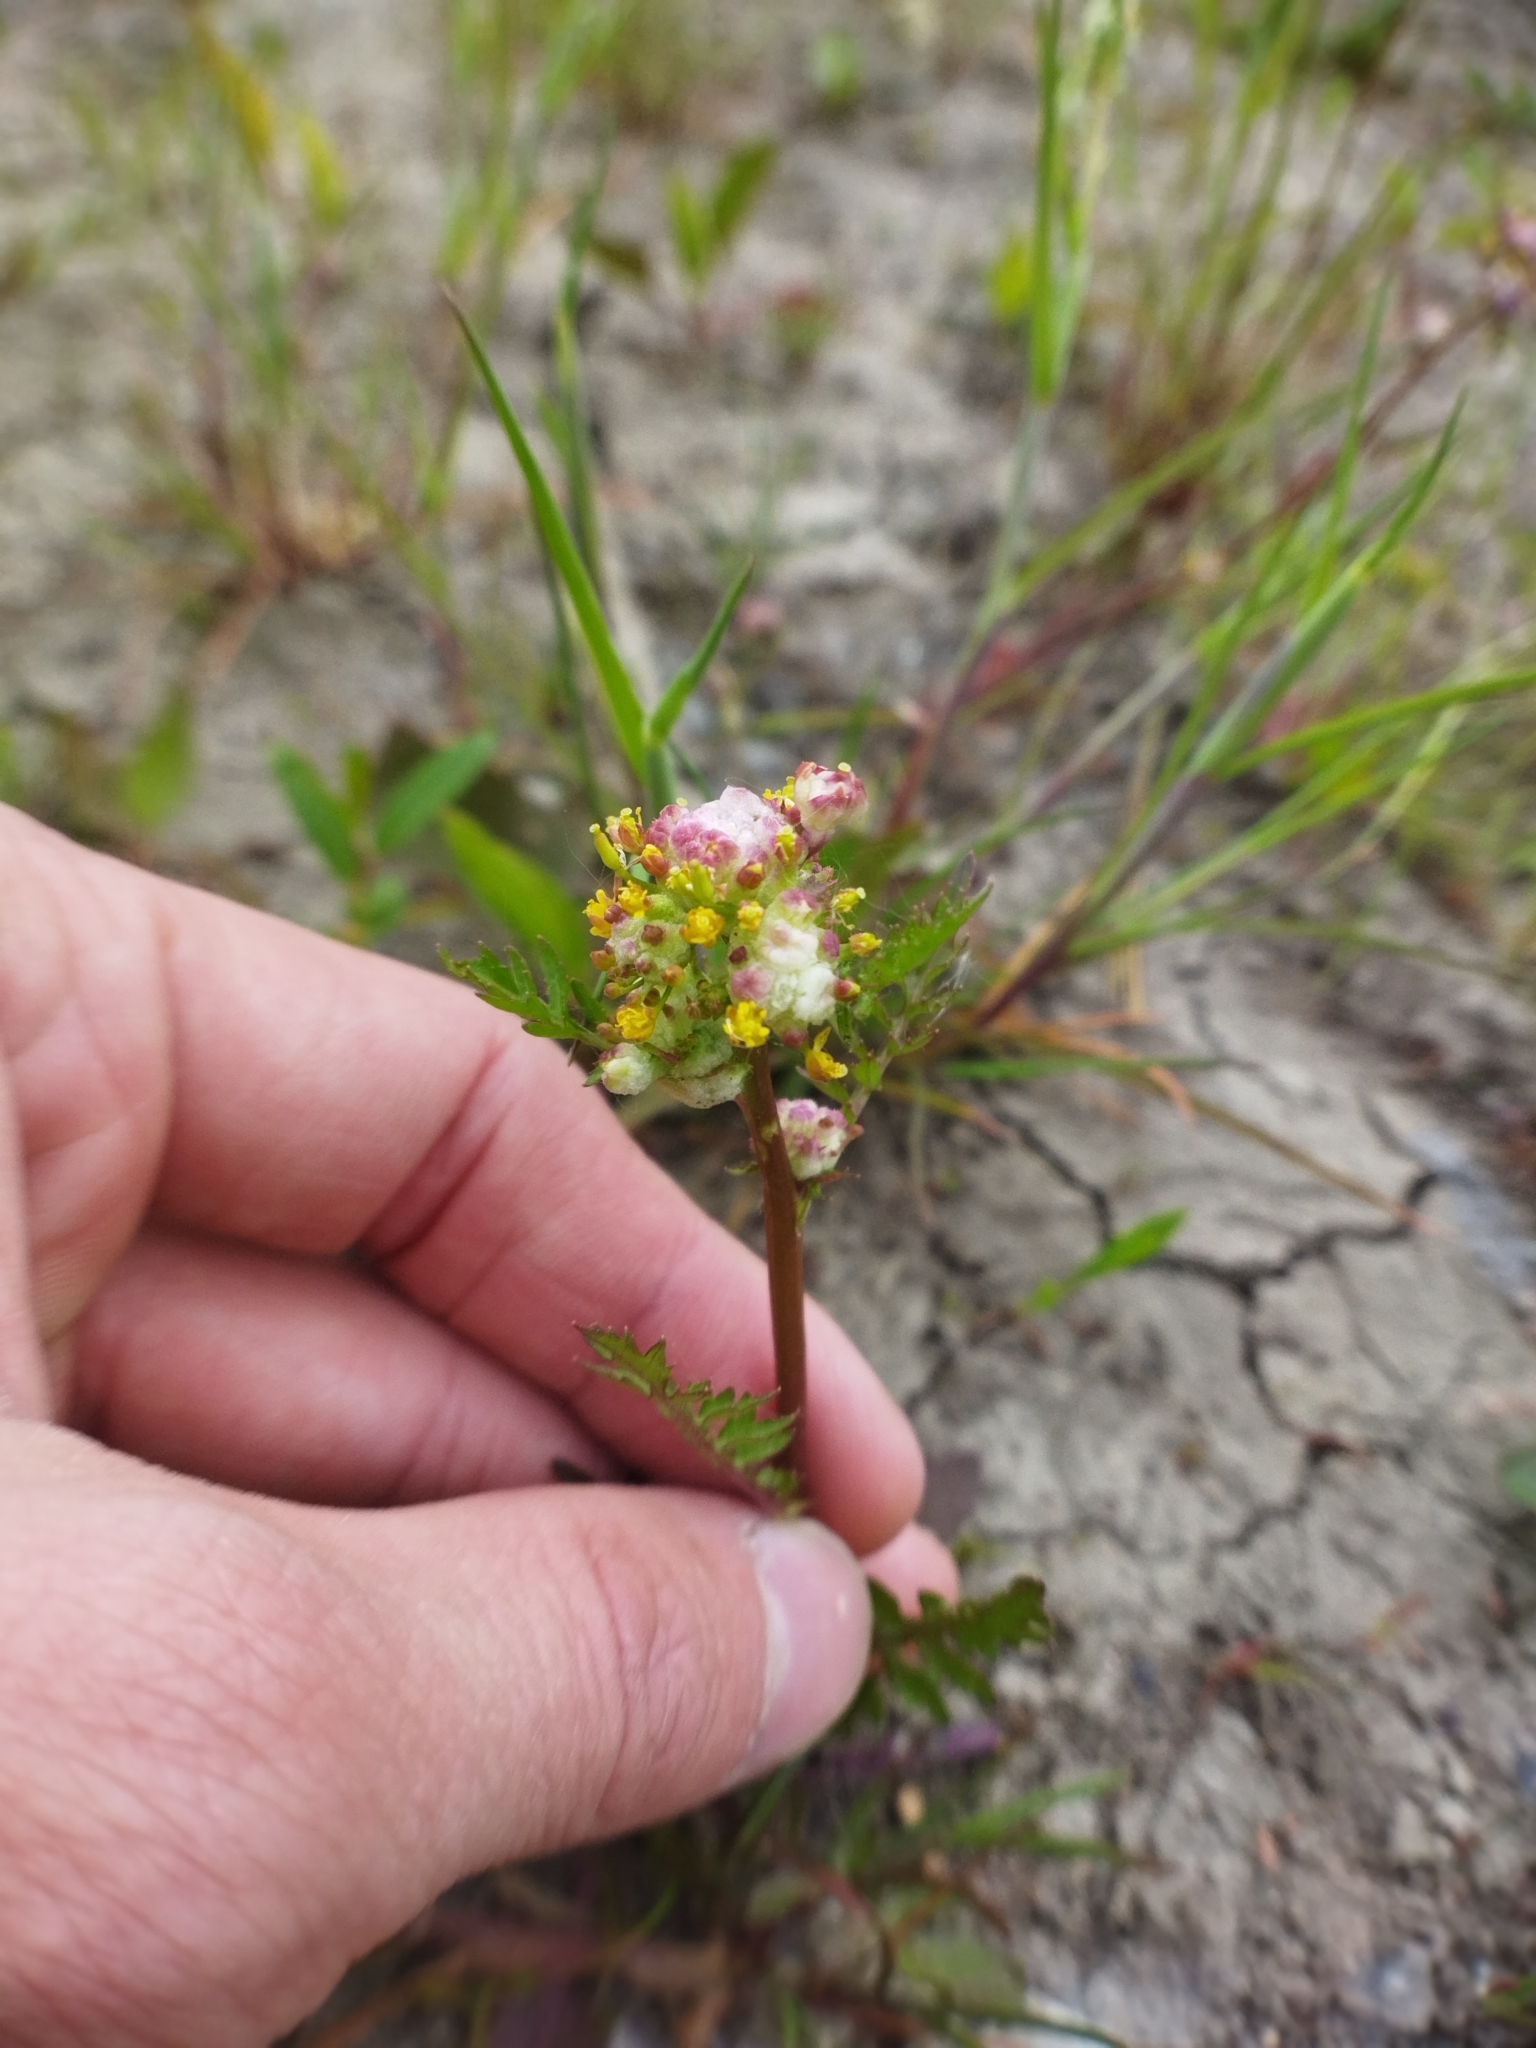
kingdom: Plantae
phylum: Tracheophyta
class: Magnoliopsida
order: Brassicales
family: Brassicaceae
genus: Rorippa
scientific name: Rorippa palustris
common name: Marsh yellow-cress
